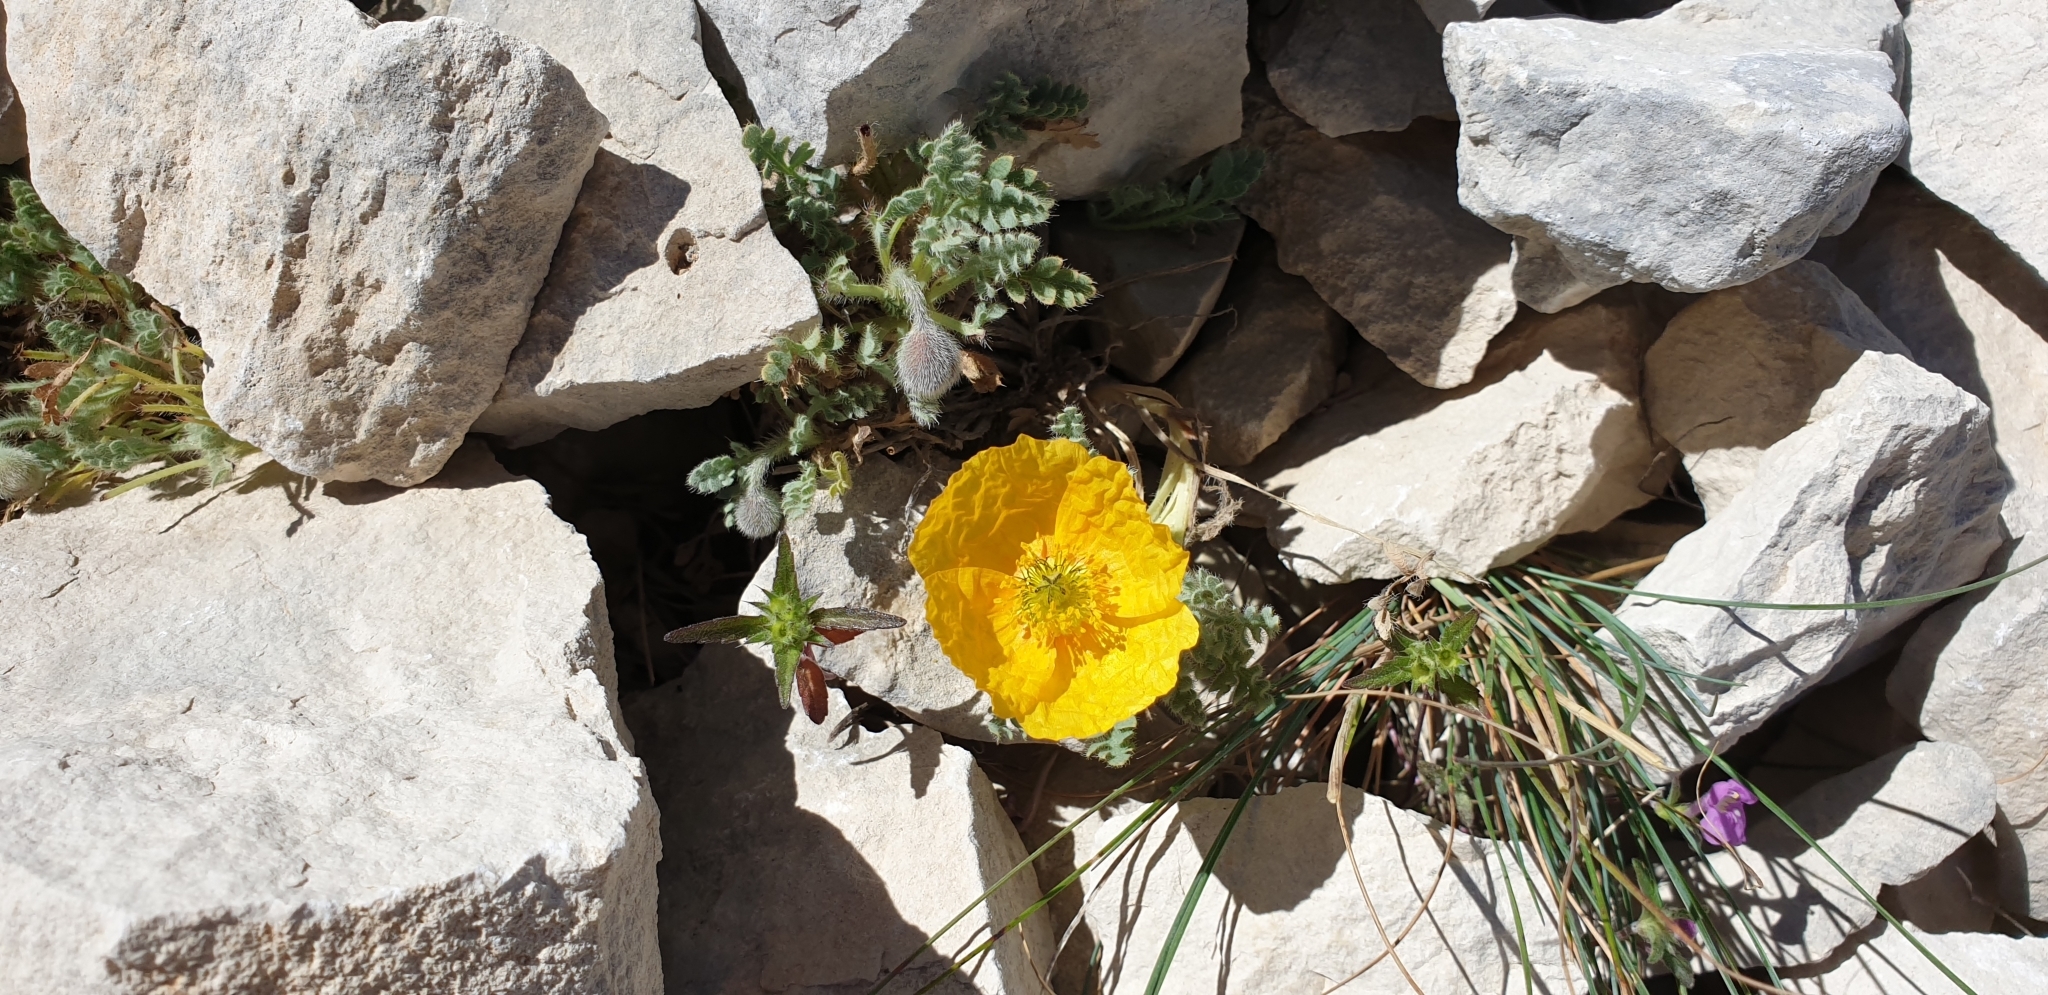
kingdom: Plantae
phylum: Tracheophyta
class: Magnoliopsida
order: Ranunculales
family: Papaveraceae
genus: Papaver
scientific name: Papaver alpinum
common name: Austrian poppy
